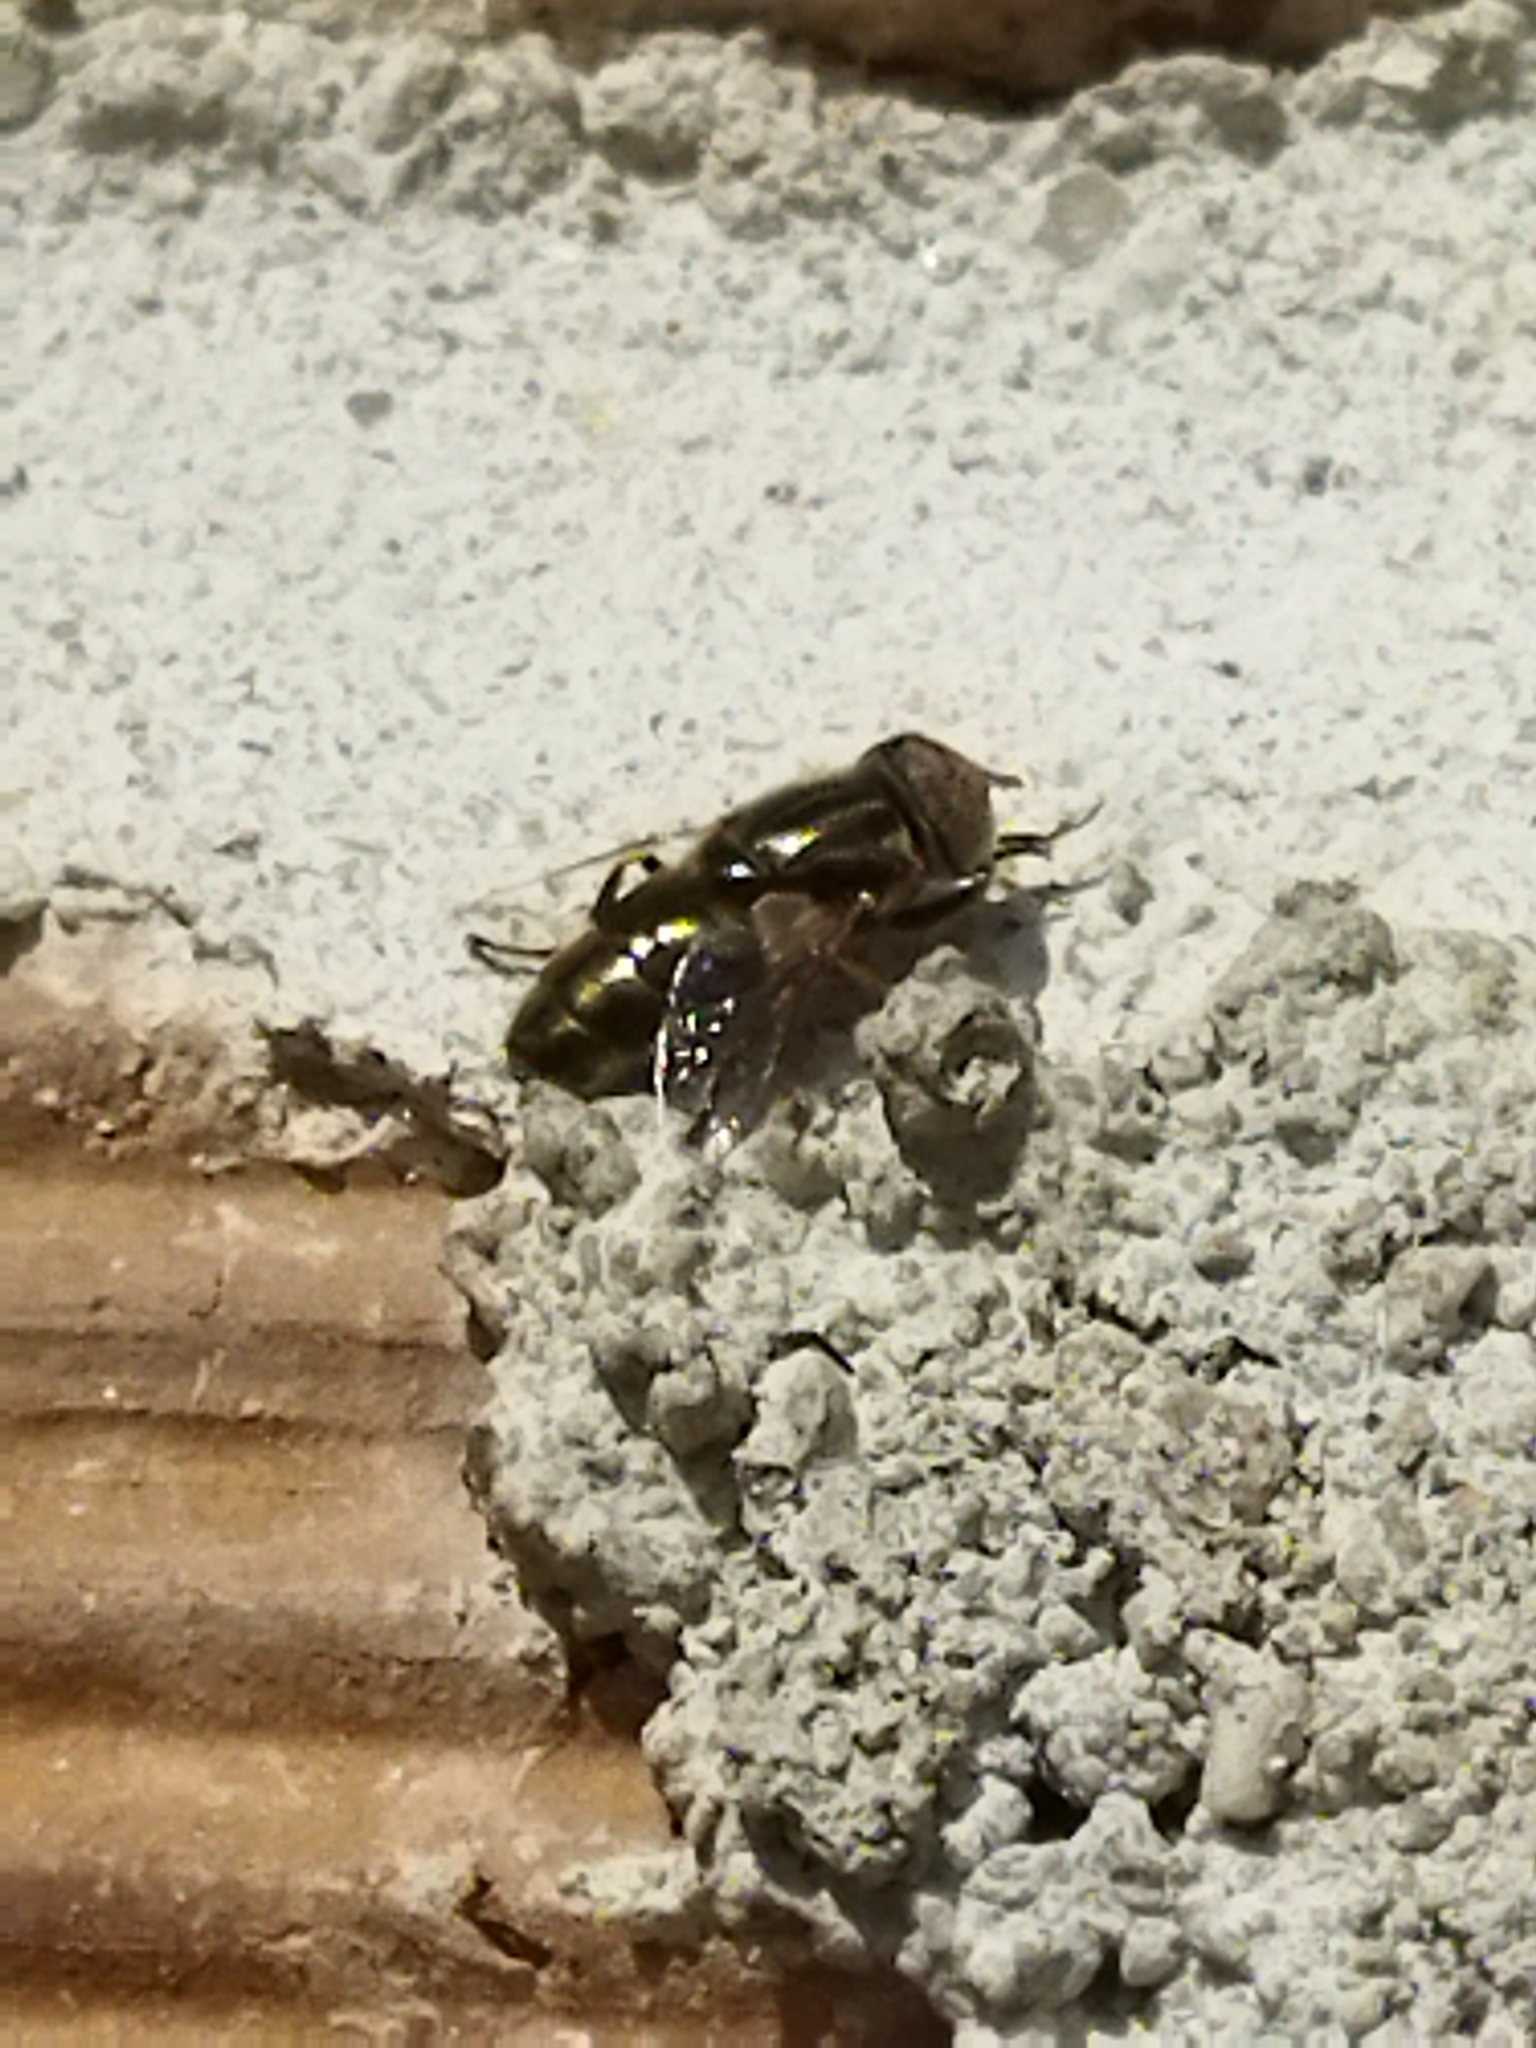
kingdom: Animalia
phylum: Arthropoda
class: Insecta
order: Diptera
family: Syrphidae
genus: Eristalinus
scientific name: Eristalinus aeneus
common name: Syrphid fly
